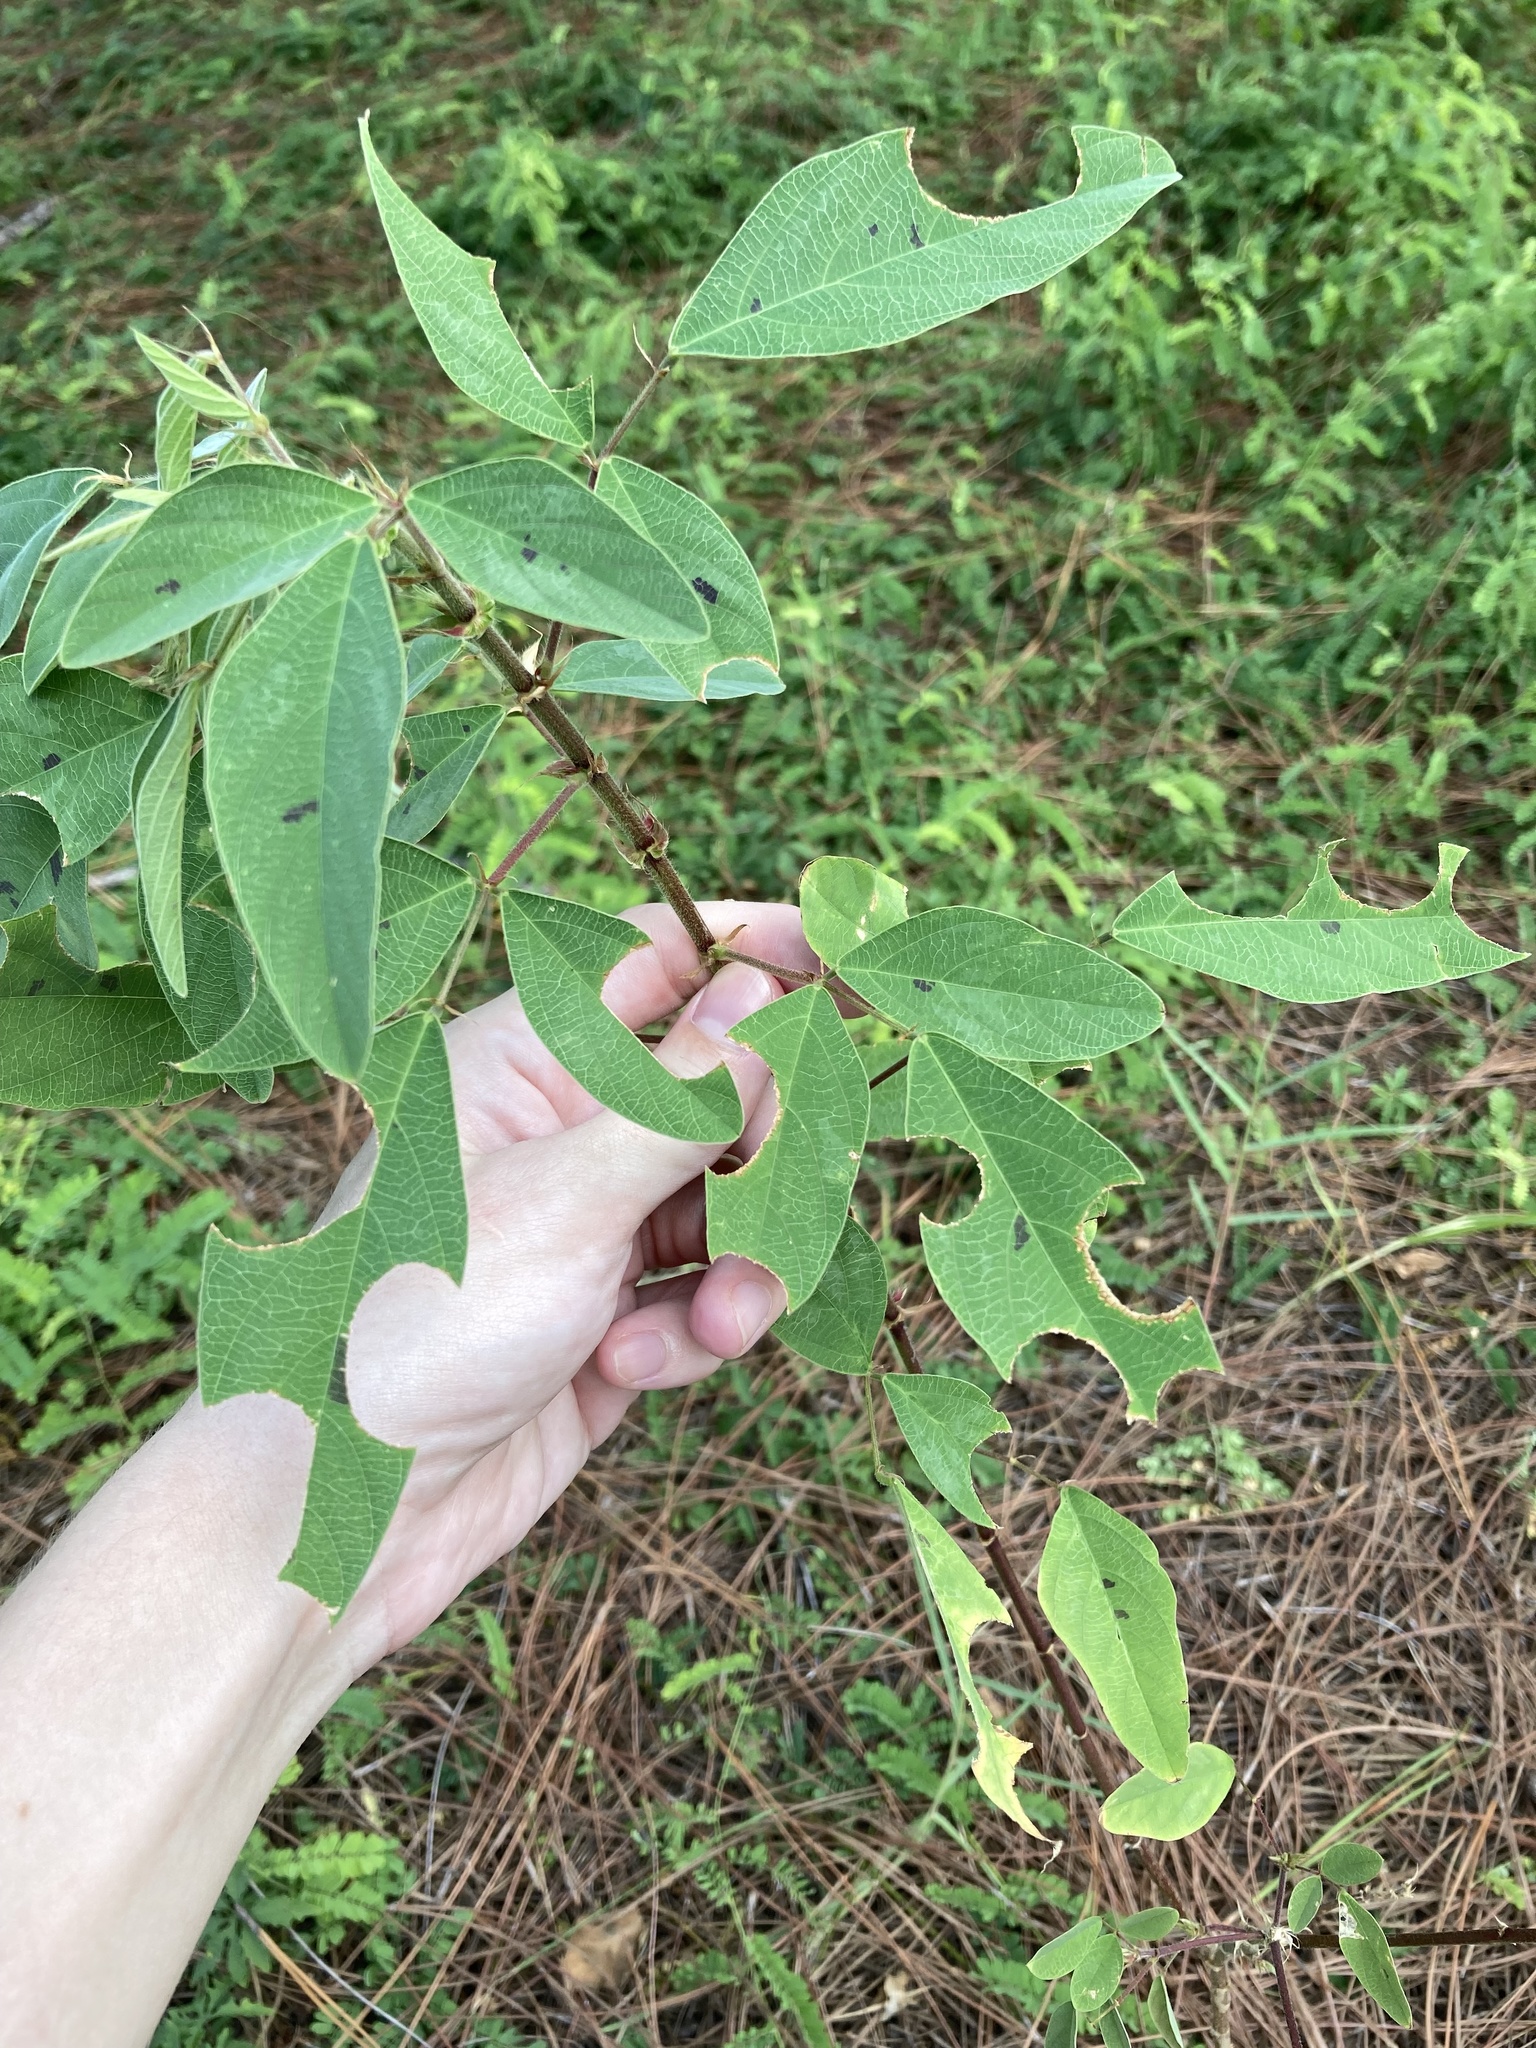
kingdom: Plantae
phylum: Tracheophyta
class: Magnoliopsida
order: Fabales
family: Fabaceae
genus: Desmodium
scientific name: Desmodium tortuosum
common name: Dixie ticktrefoil
